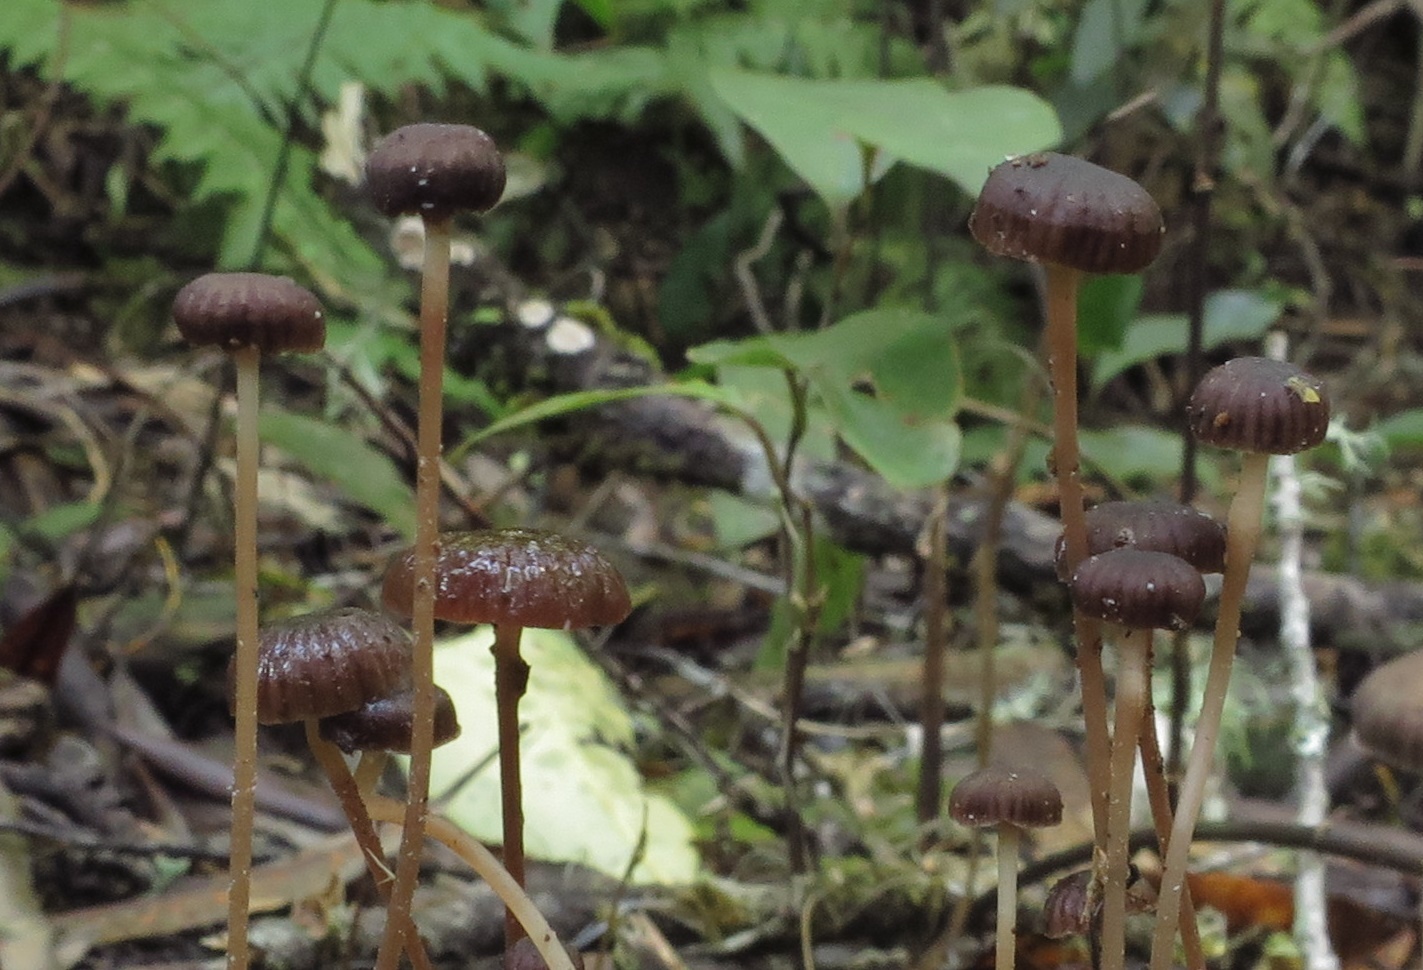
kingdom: Fungi
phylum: Basidiomycota
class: Agaricomycetes
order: Agaricales
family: Hydnangiaceae
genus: Laccaria
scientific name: Laccaria masoniae
